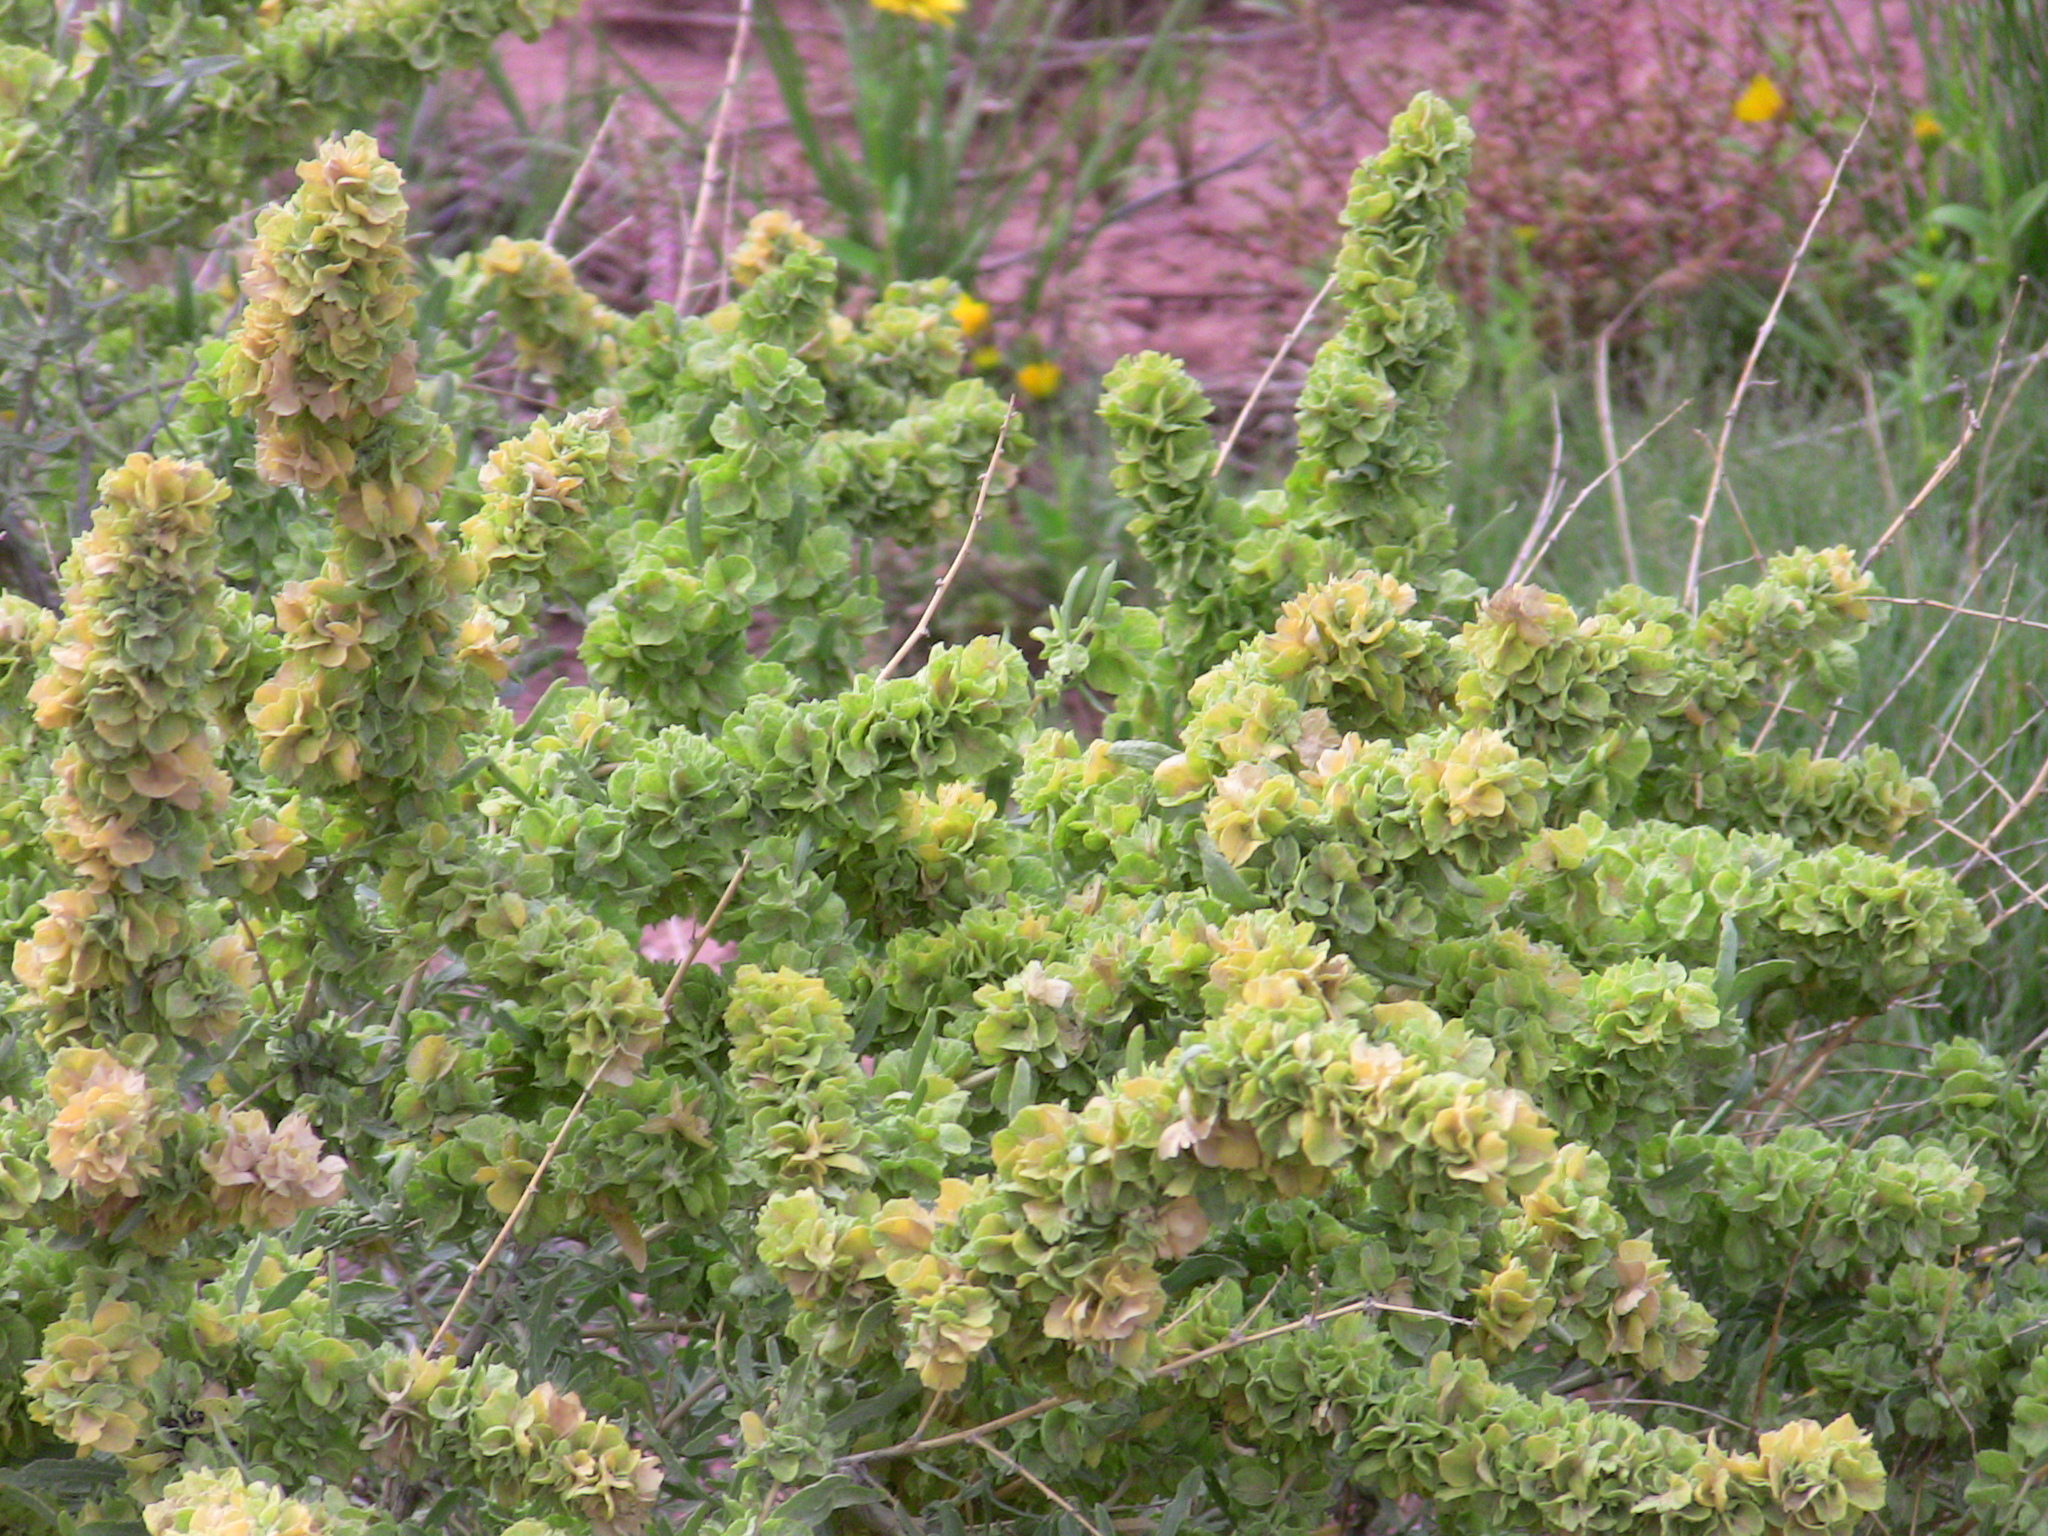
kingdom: Plantae
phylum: Tracheophyta
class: Magnoliopsida
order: Caryophyllales
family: Amaranthaceae
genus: Atriplex
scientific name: Atriplex canescens
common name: Four-wing saltbush
